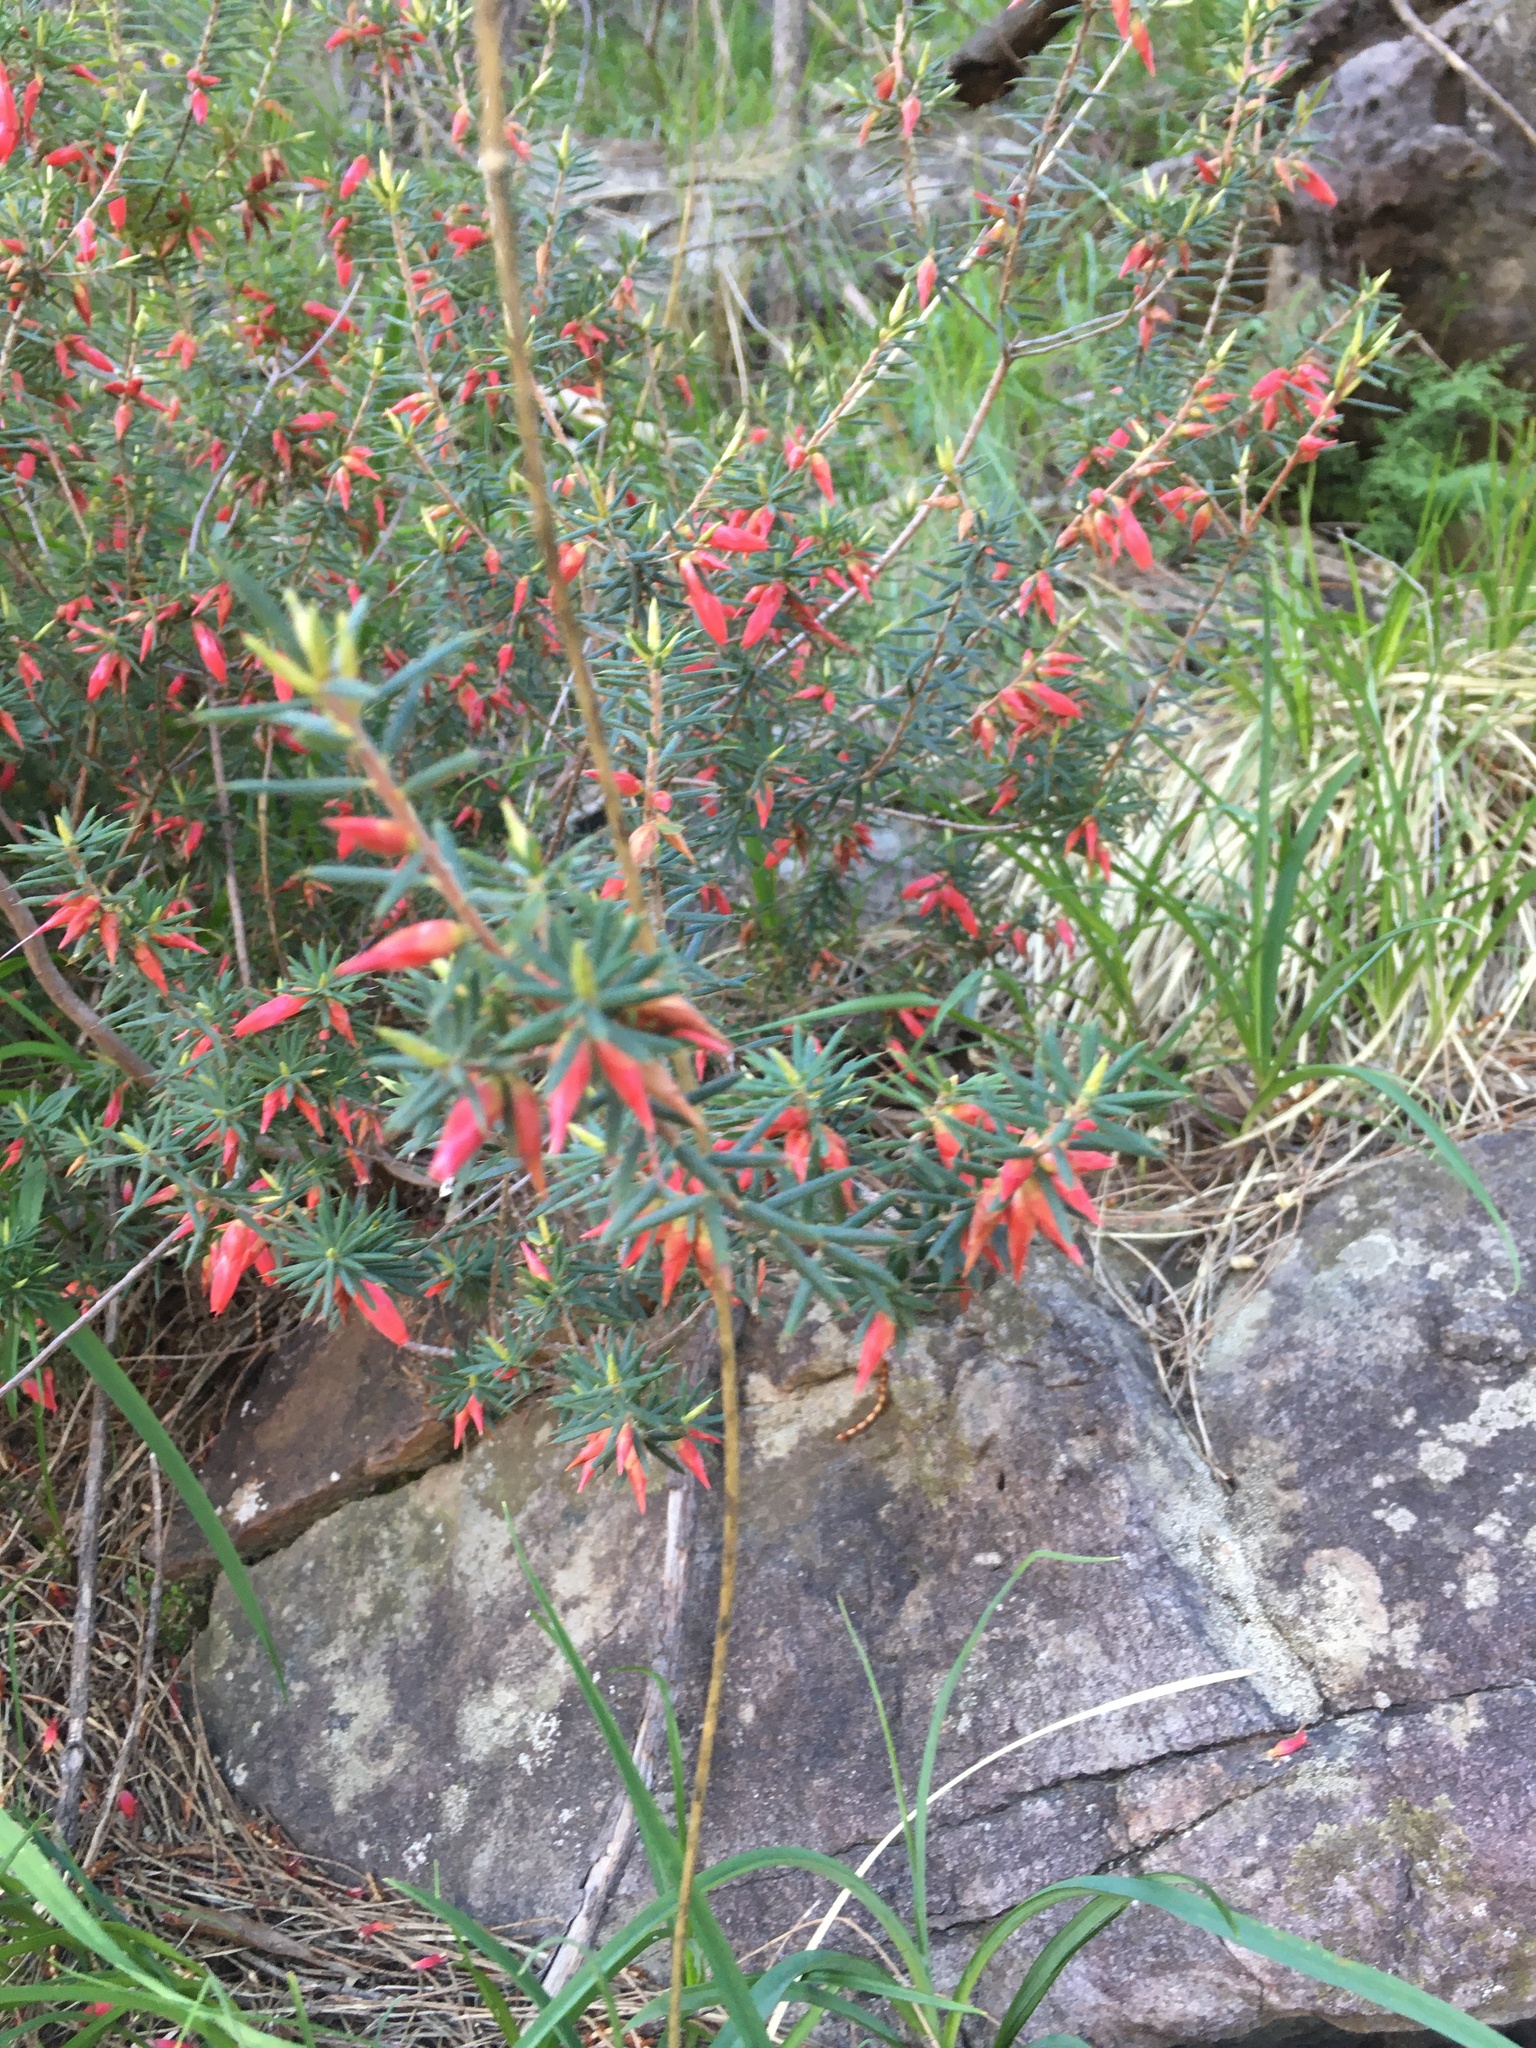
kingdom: Plantae
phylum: Tracheophyta
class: Magnoliopsida
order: Ericales
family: Ericaceae
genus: Stenanthera
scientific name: Stenanthera conostephioides
